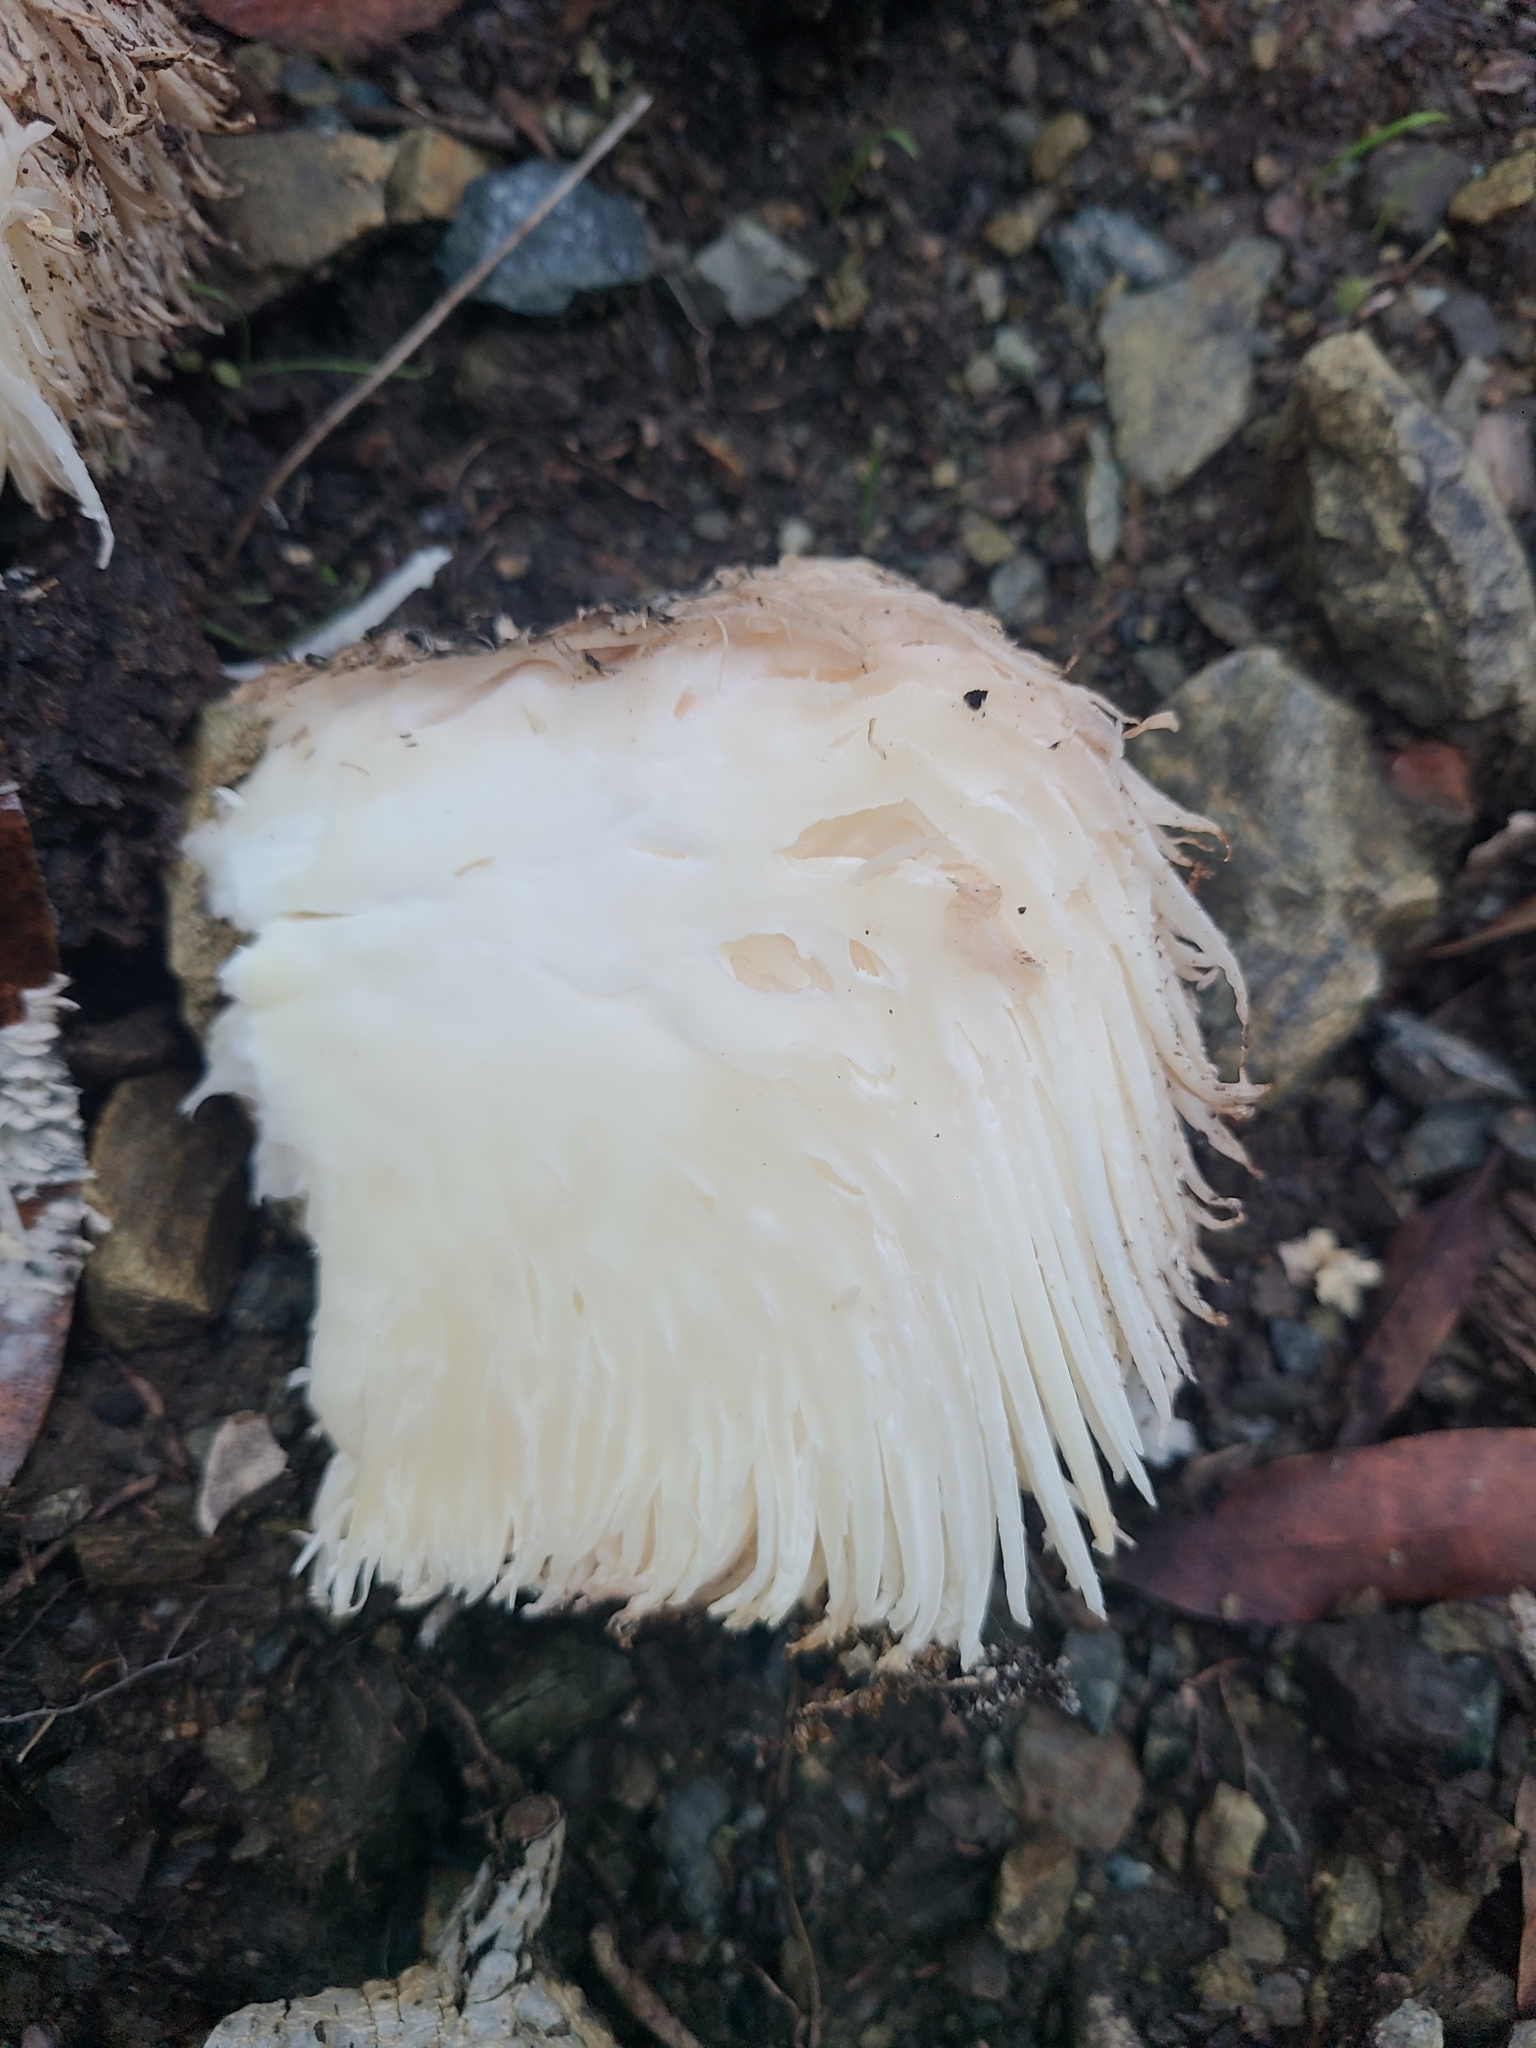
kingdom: Fungi
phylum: Basidiomycota
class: Agaricomycetes
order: Russulales
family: Hericiaceae
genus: Hericium
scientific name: Hericium erinaceus
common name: Bearded tooth
